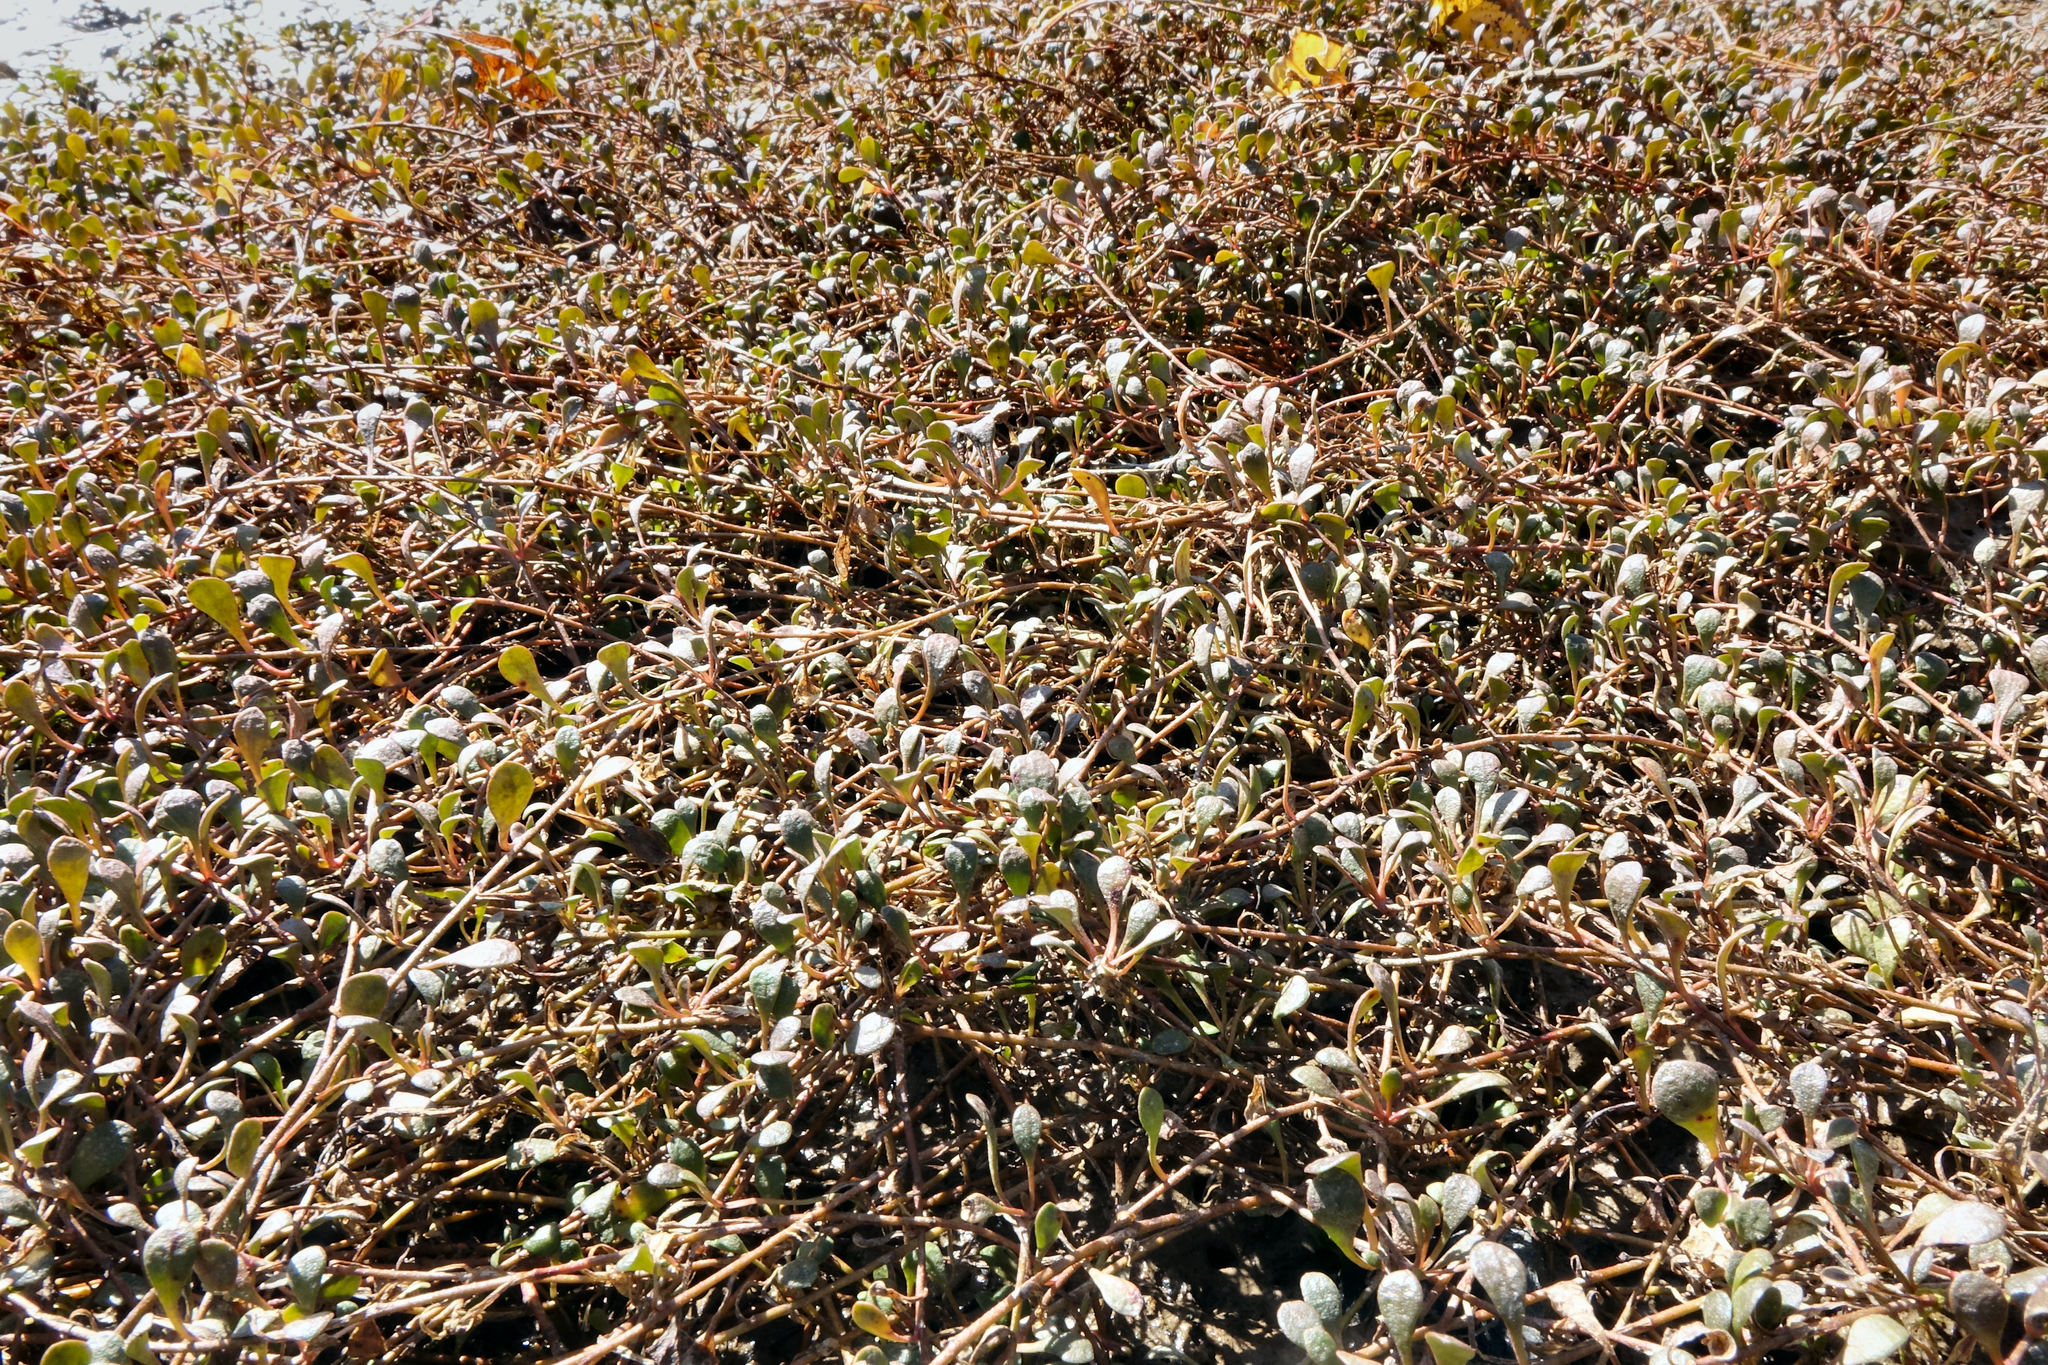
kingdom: Plantae
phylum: Tracheophyta
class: Magnoliopsida
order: Ericales
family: Primulaceae
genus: Samolus
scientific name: Samolus repens
